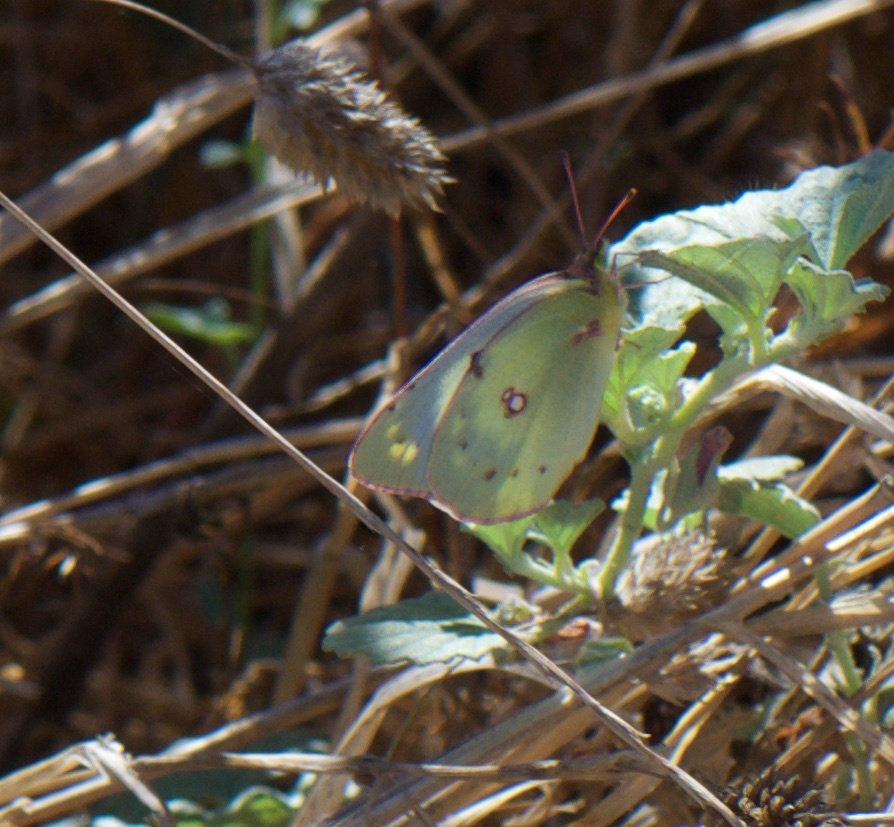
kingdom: Animalia
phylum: Arthropoda
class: Insecta
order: Lepidoptera
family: Pieridae
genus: Colias
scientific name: Colias eurytheme
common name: Alfalfa butterfly
